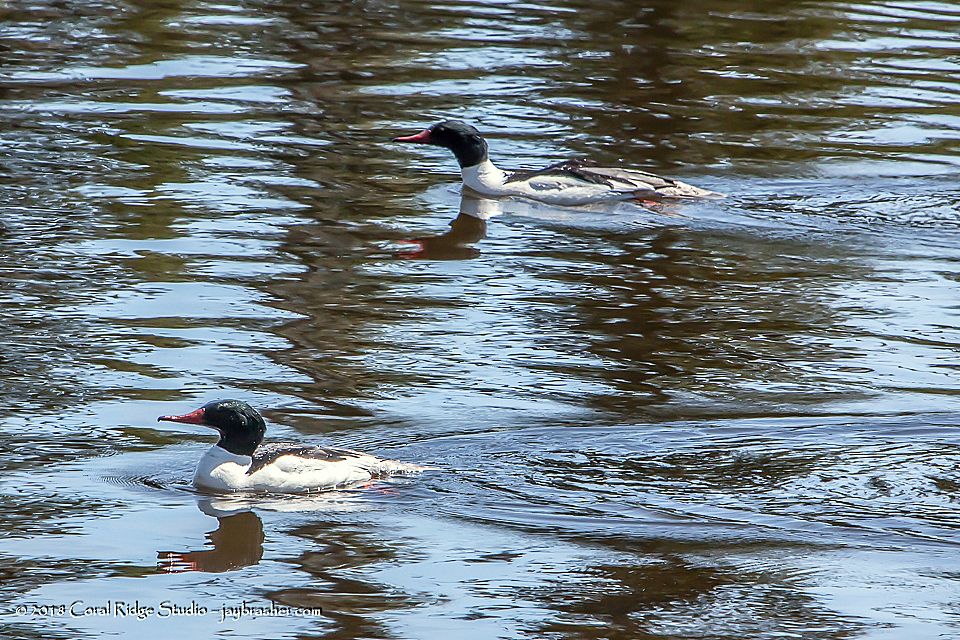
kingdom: Animalia
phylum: Chordata
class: Aves
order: Anseriformes
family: Anatidae
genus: Mergus
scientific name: Mergus merganser
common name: Common merganser
